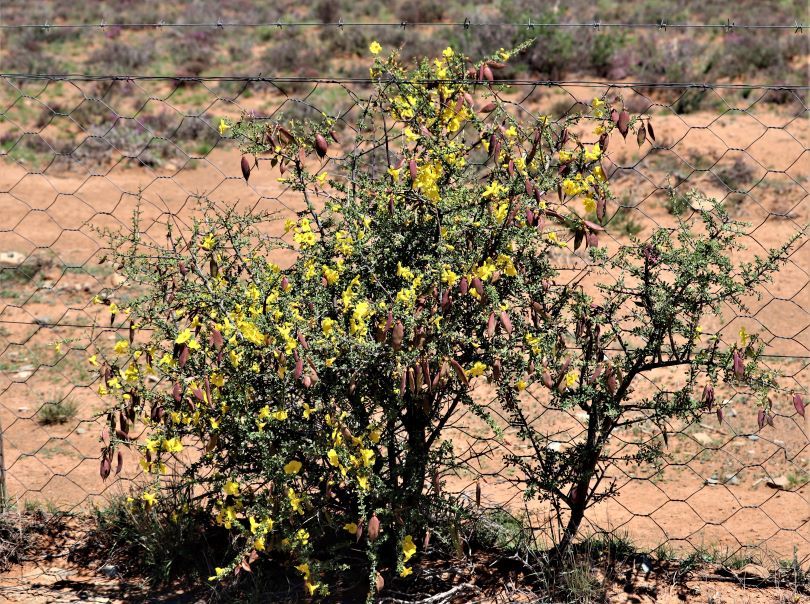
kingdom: Plantae
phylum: Tracheophyta
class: Magnoliopsida
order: Lamiales
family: Bignoniaceae
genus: Rhigozum
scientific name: Rhigozum obovatum
